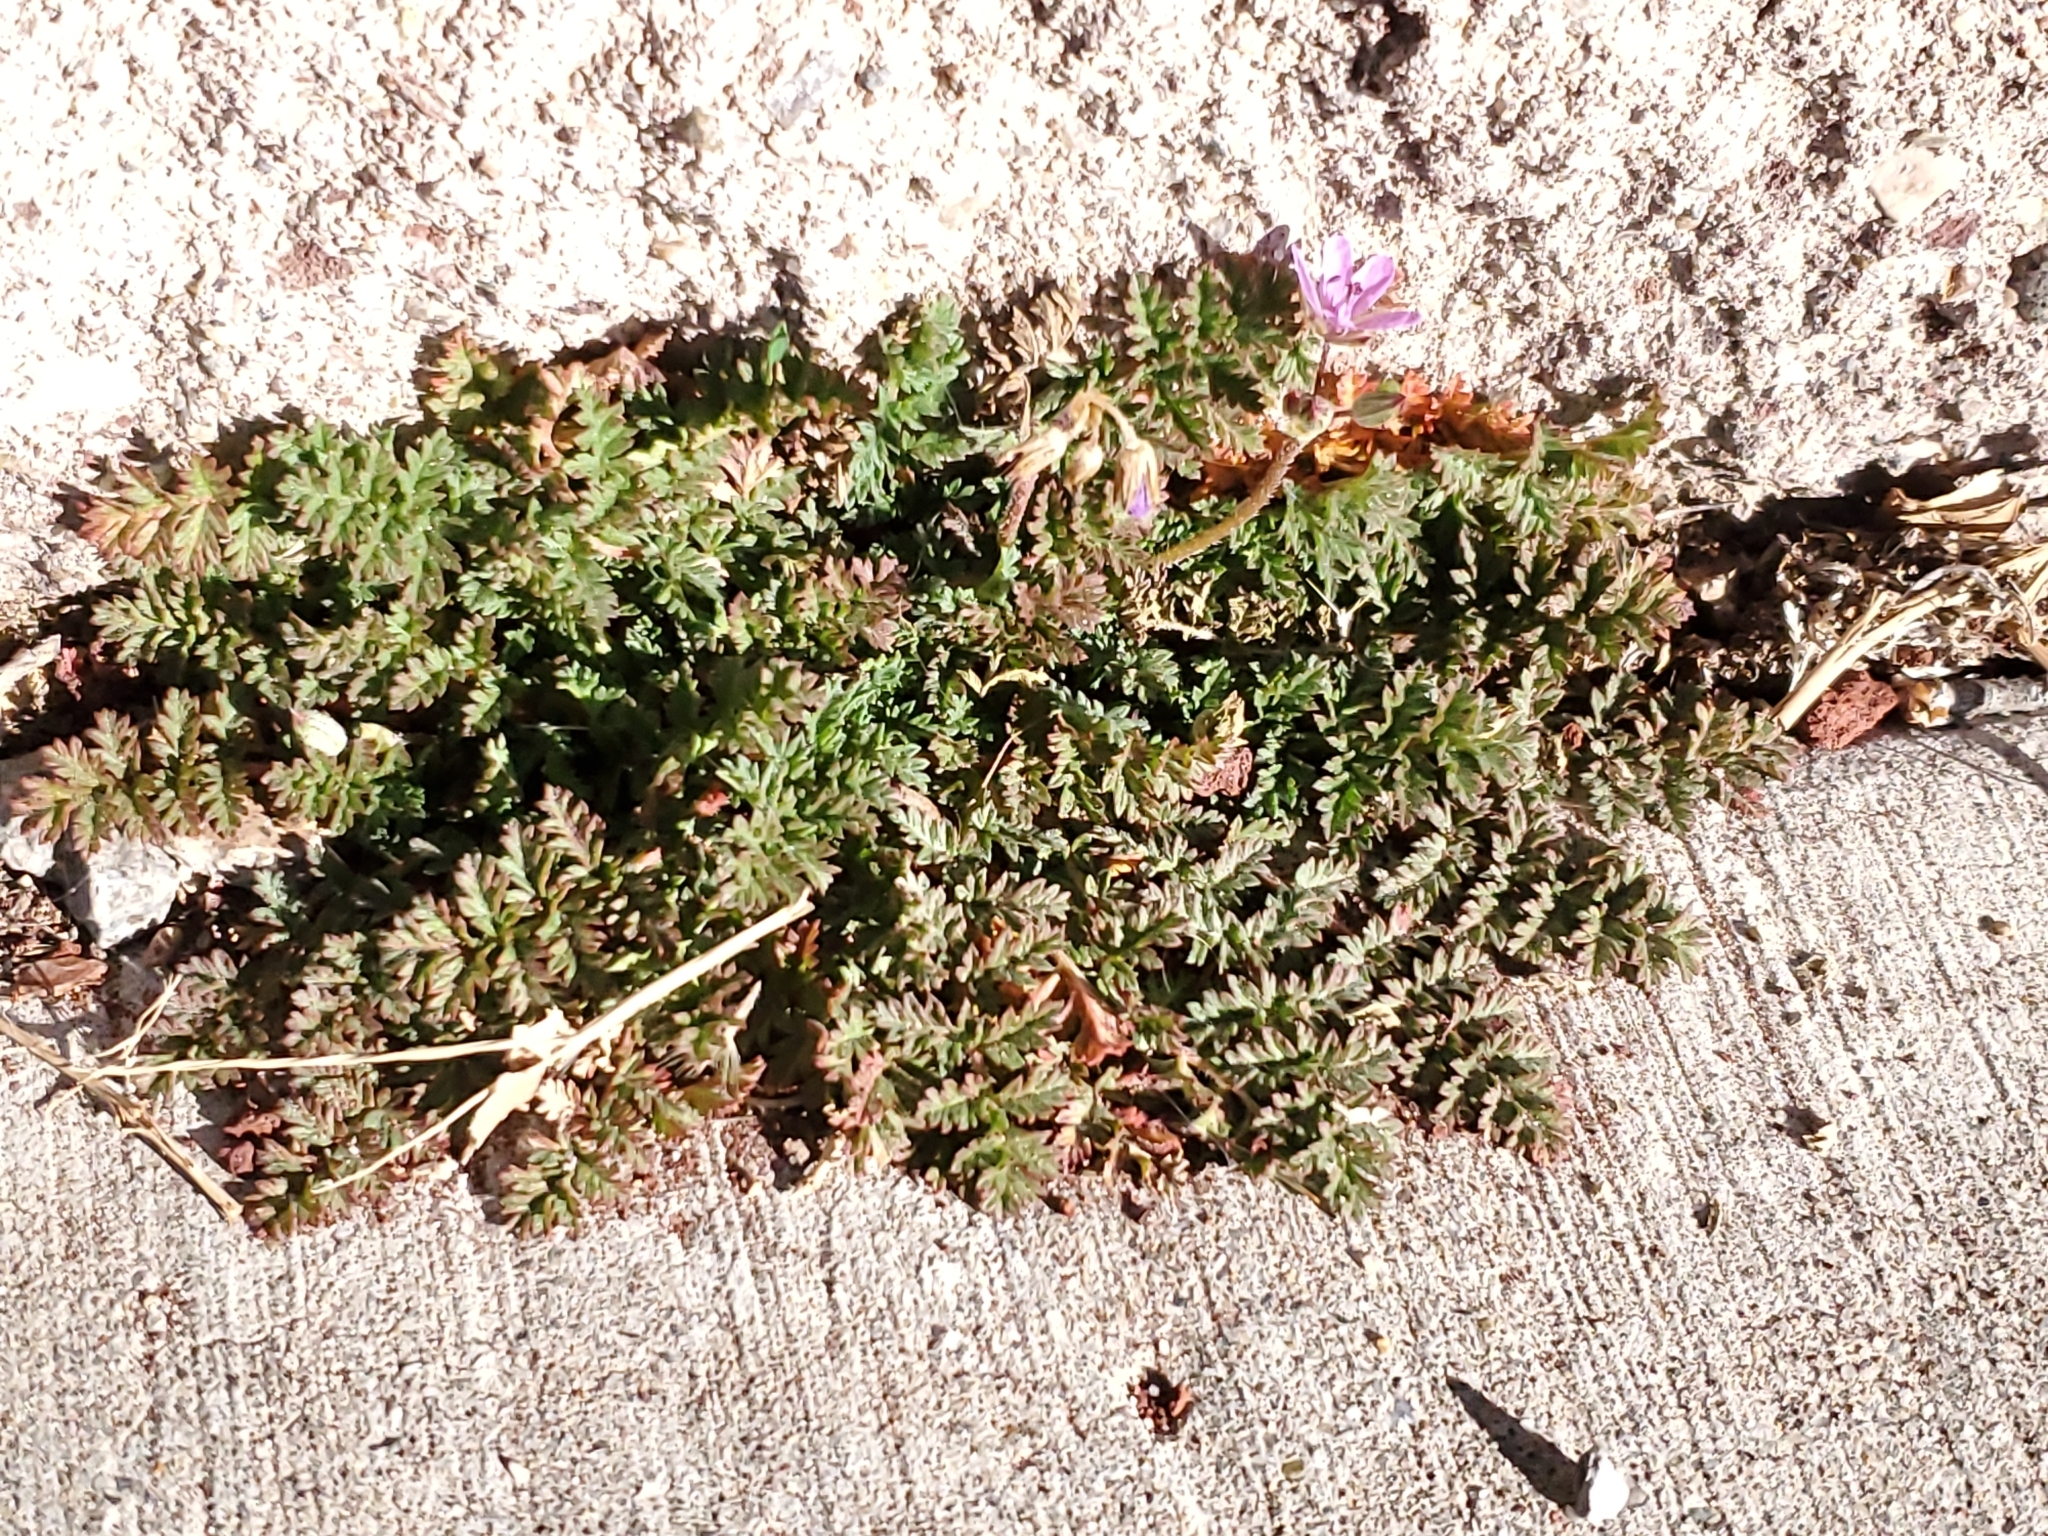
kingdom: Plantae
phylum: Tracheophyta
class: Magnoliopsida
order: Geraniales
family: Geraniaceae
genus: Erodium
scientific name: Erodium cicutarium
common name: Common stork's-bill
